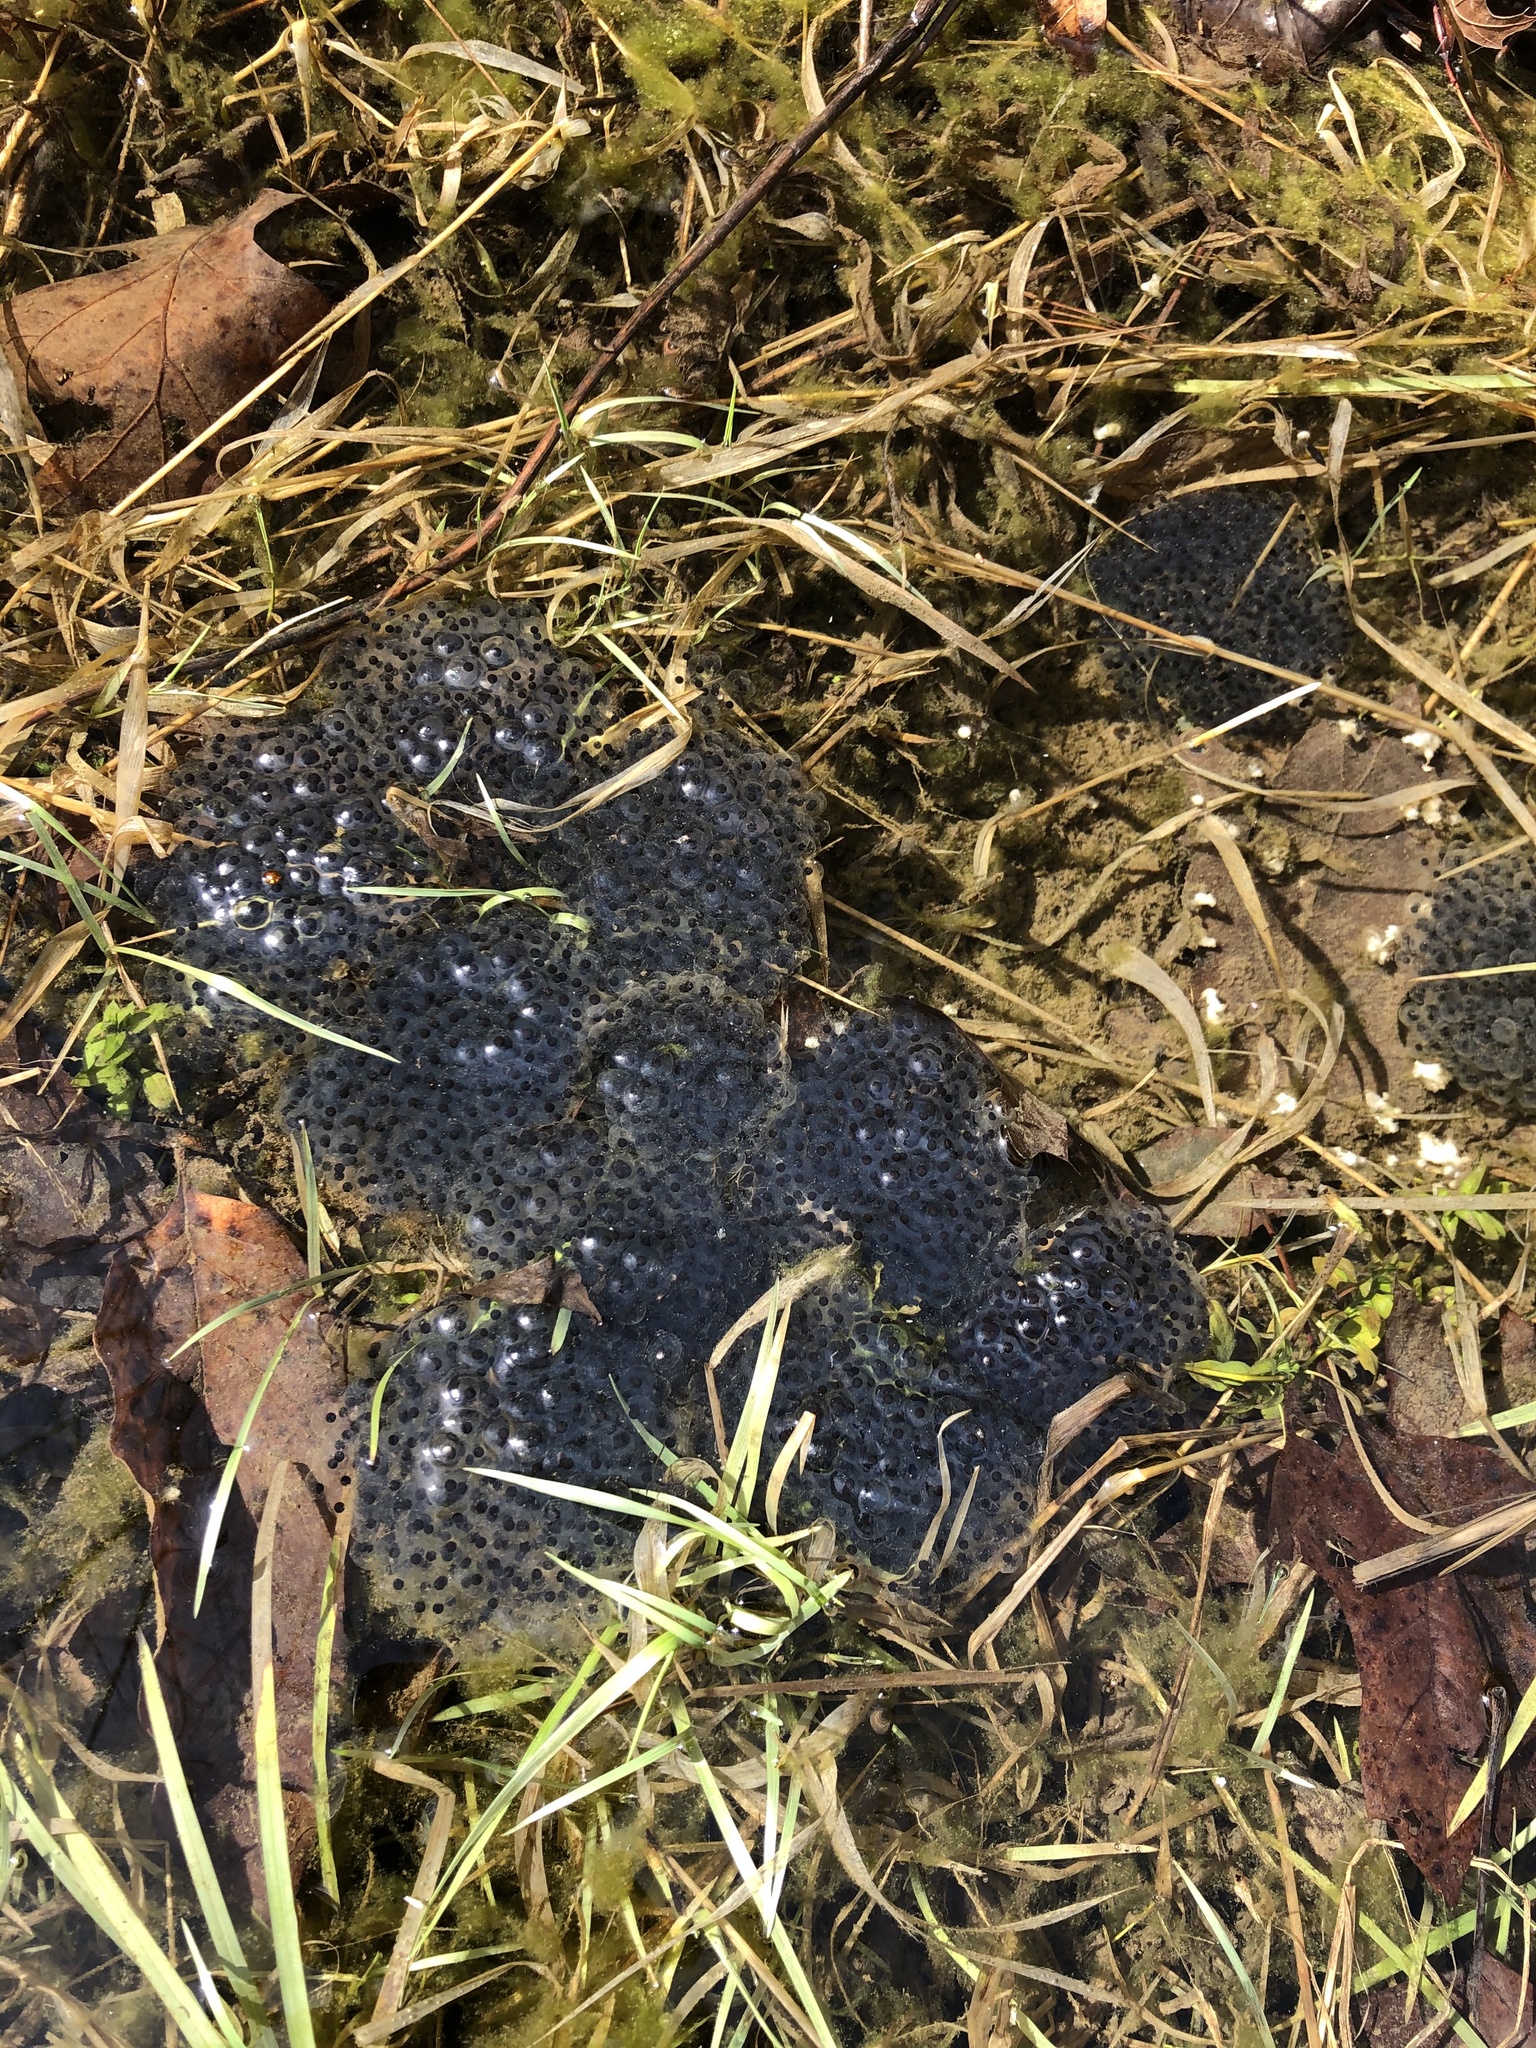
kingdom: Animalia
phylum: Chordata
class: Amphibia
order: Anura
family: Ranidae
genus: Lithobates
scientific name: Lithobates sylvaticus
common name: Wood frog
